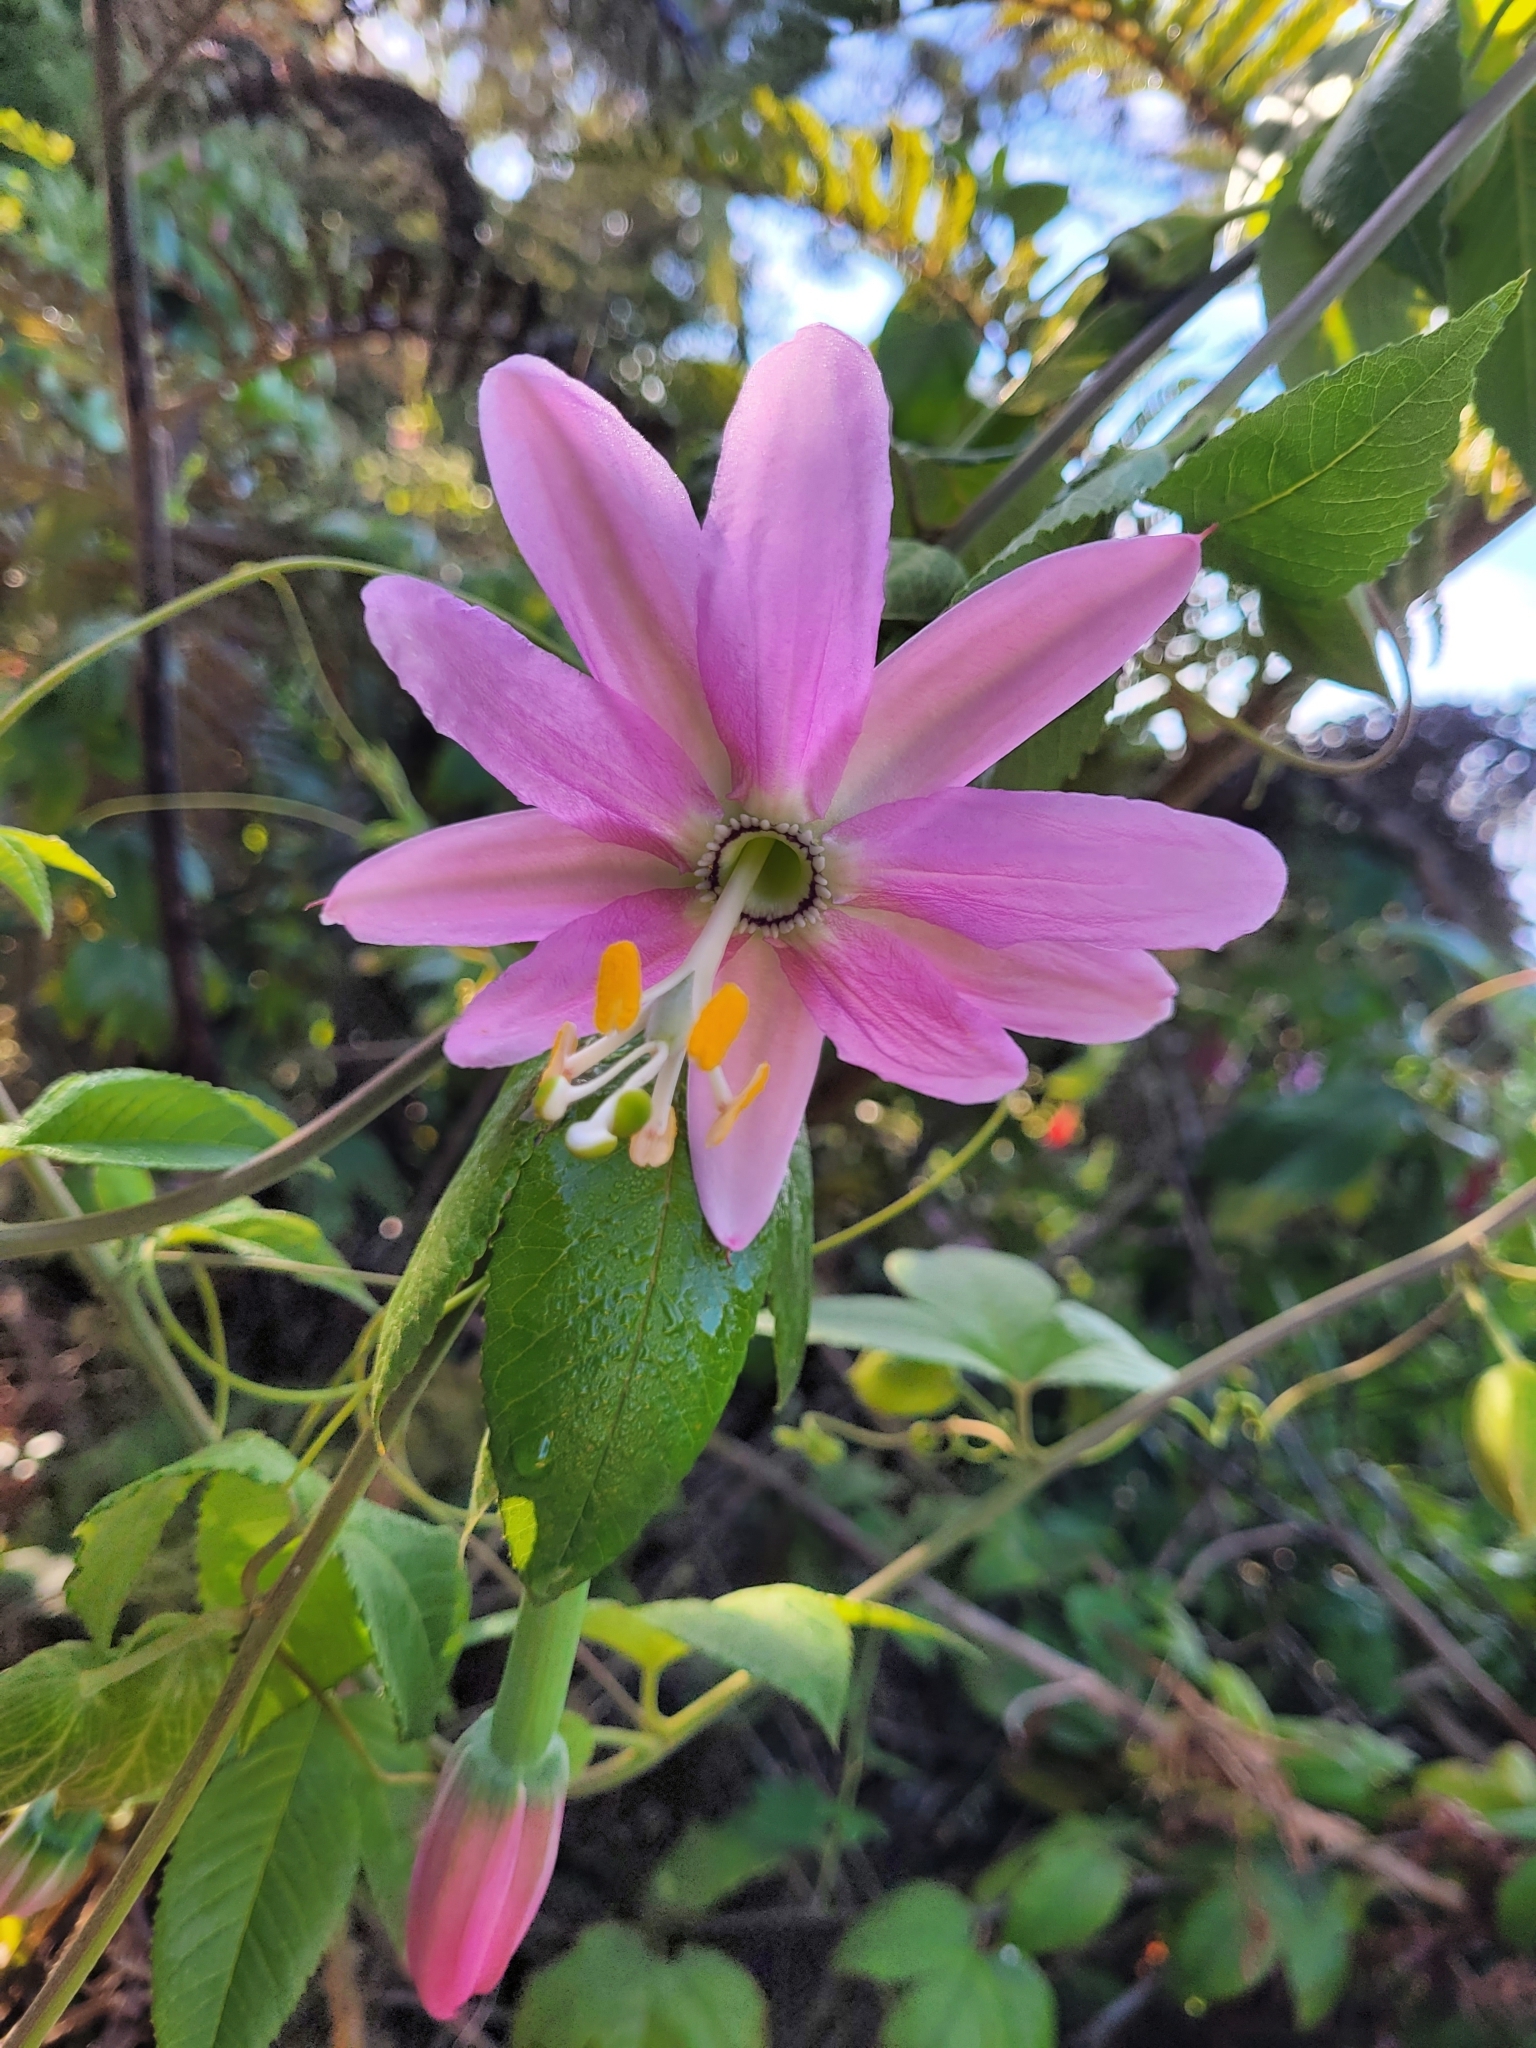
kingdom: Plantae
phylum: Tracheophyta
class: Magnoliopsida
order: Malpighiales
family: Passifloraceae
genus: Passiflora
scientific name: Passiflora tarminiana
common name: Banana poka
